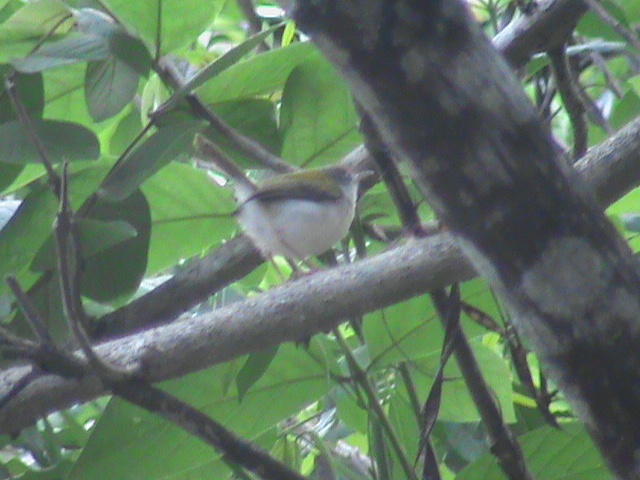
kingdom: Animalia
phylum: Chordata
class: Aves
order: Passeriformes
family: Cisticolidae
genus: Orthotomus
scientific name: Orthotomus sutorius
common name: Common tailorbird
